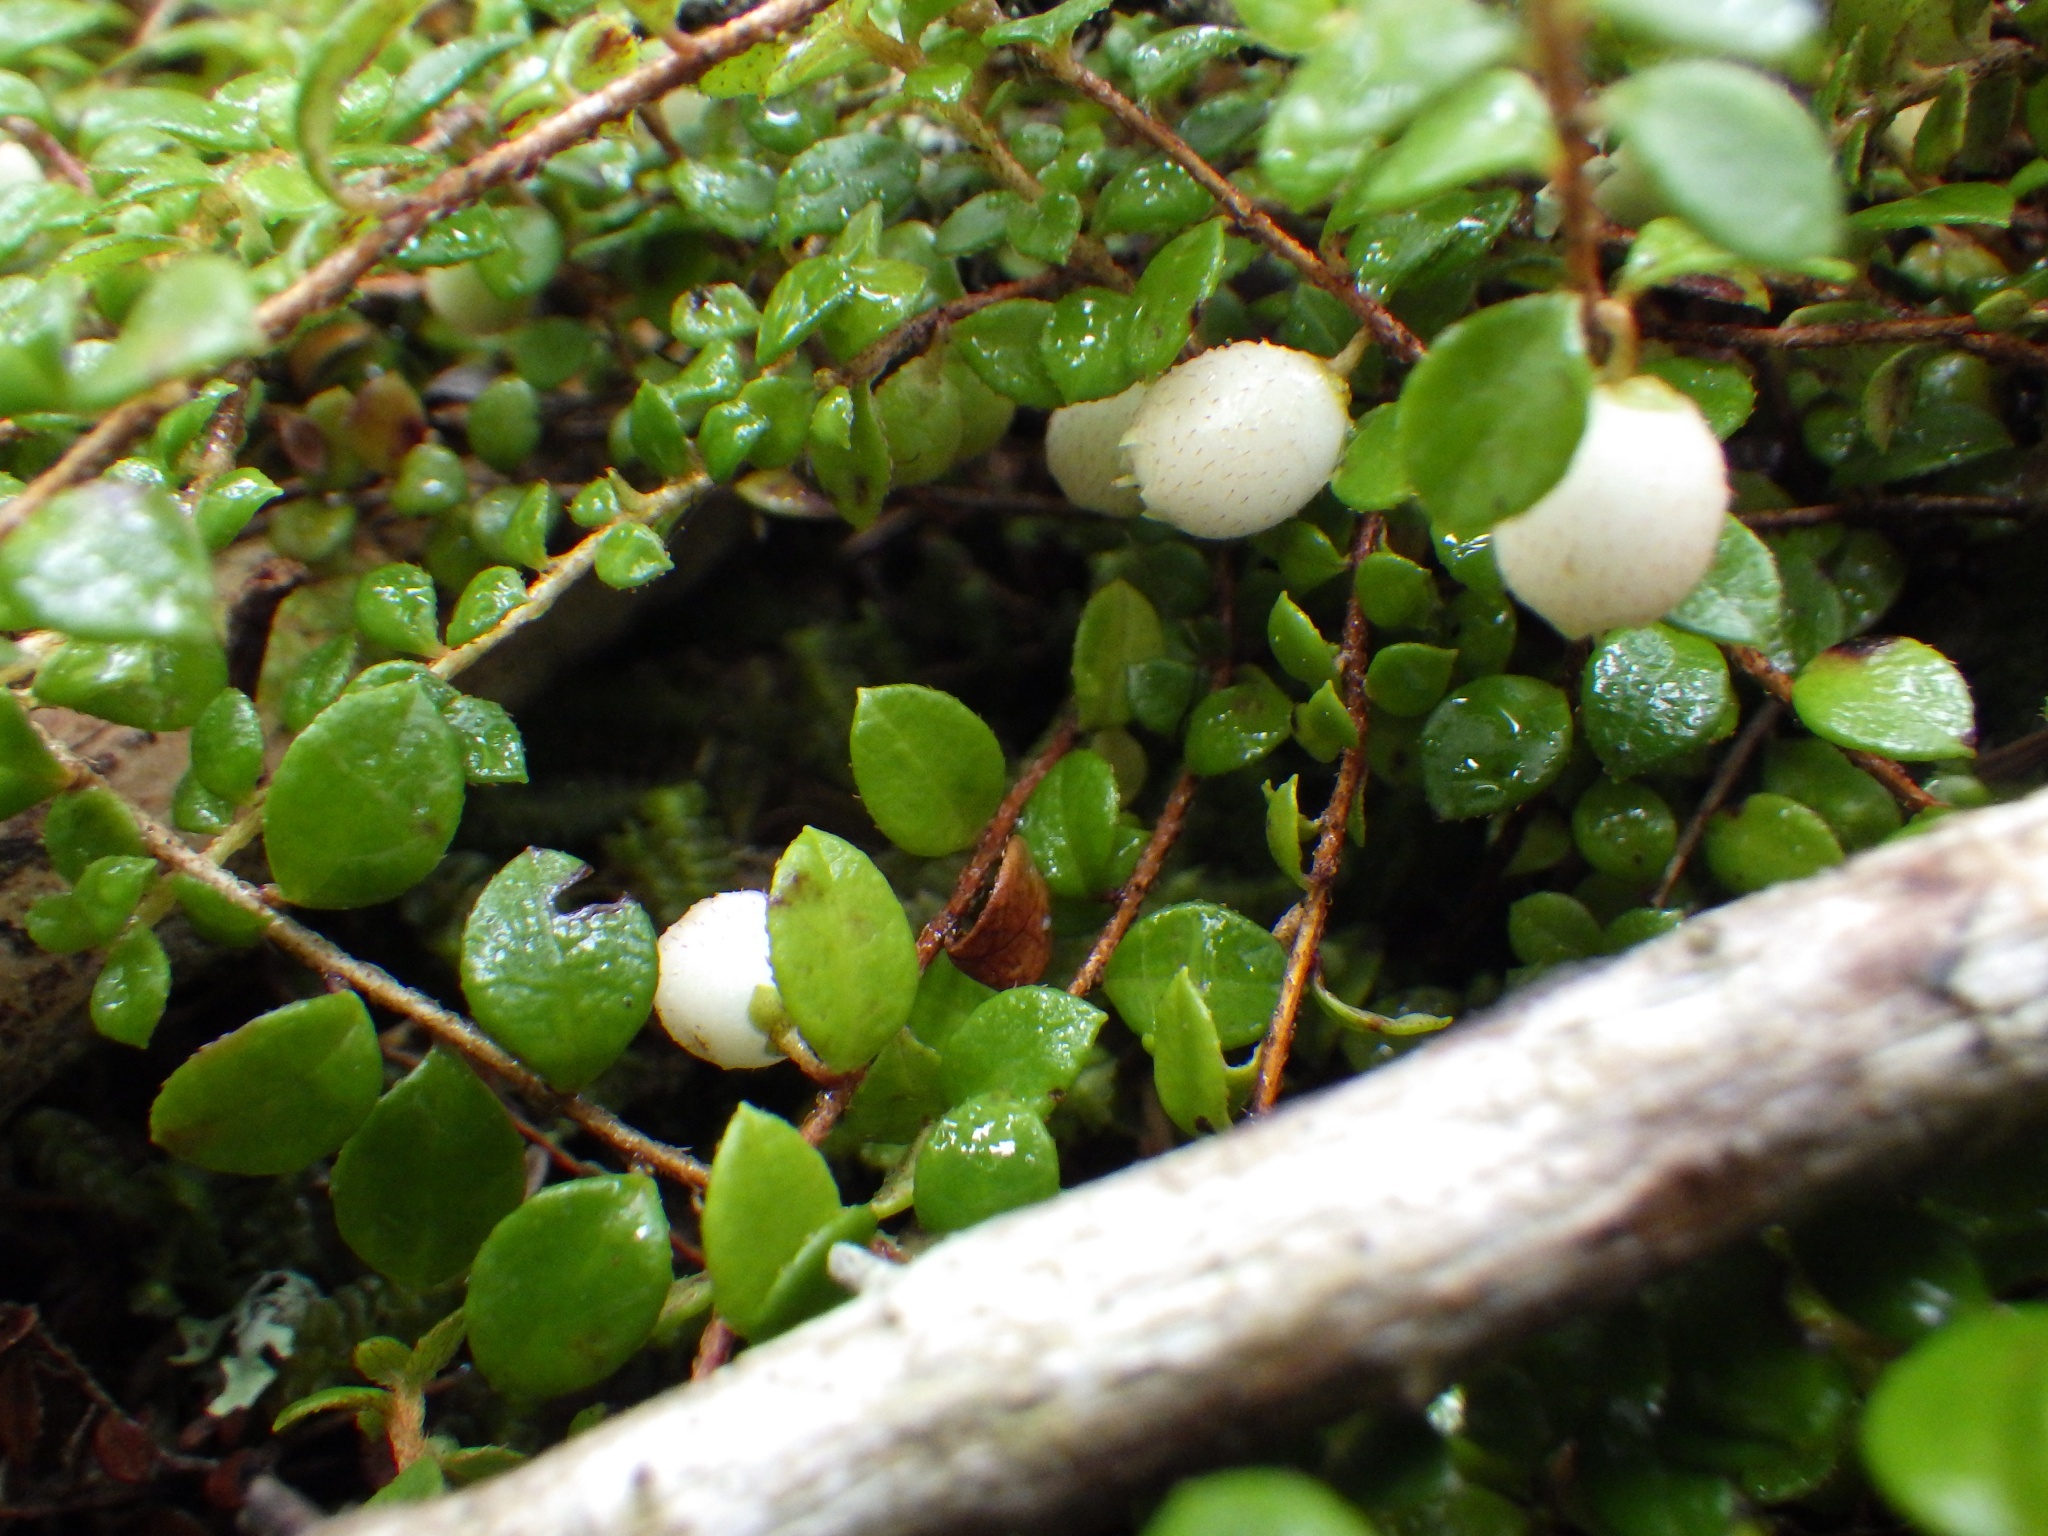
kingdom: Plantae
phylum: Tracheophyta
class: Magnoliopsida
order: Ericales
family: Ericaceae
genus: Gaultheria
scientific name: Gaultheria hispidula
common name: Cancer wintergreen
